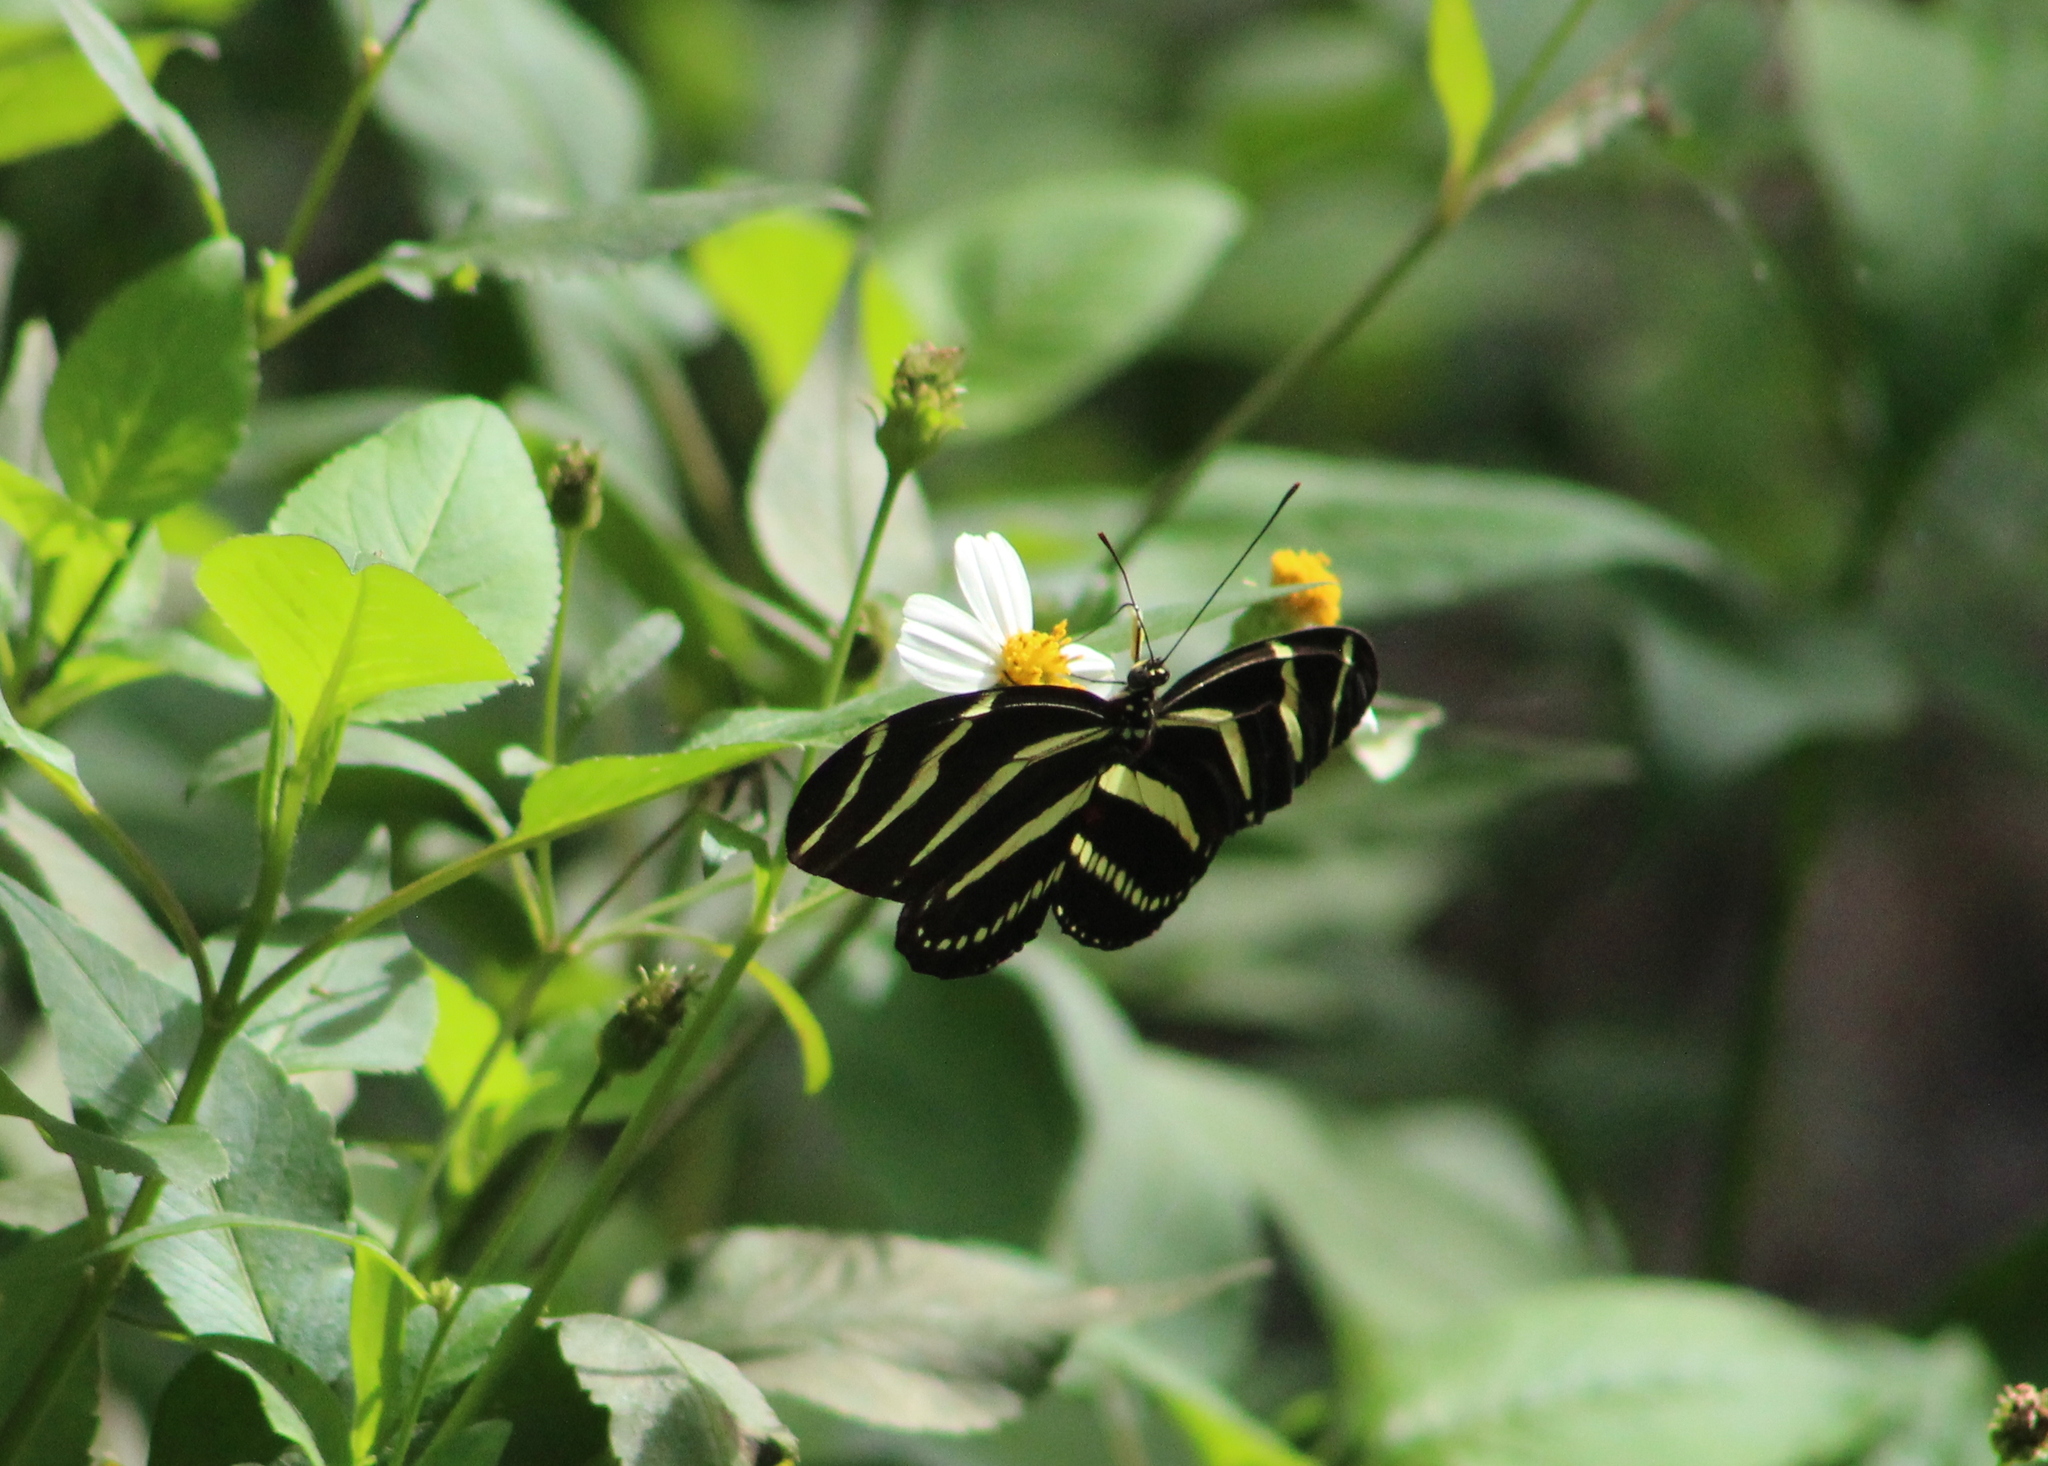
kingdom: Animalia
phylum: Arthropoda
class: Insecta
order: Lepidoptera
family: Nymphalidae
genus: Heliconius
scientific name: Heliconius charithonia
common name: Zebra long wing
